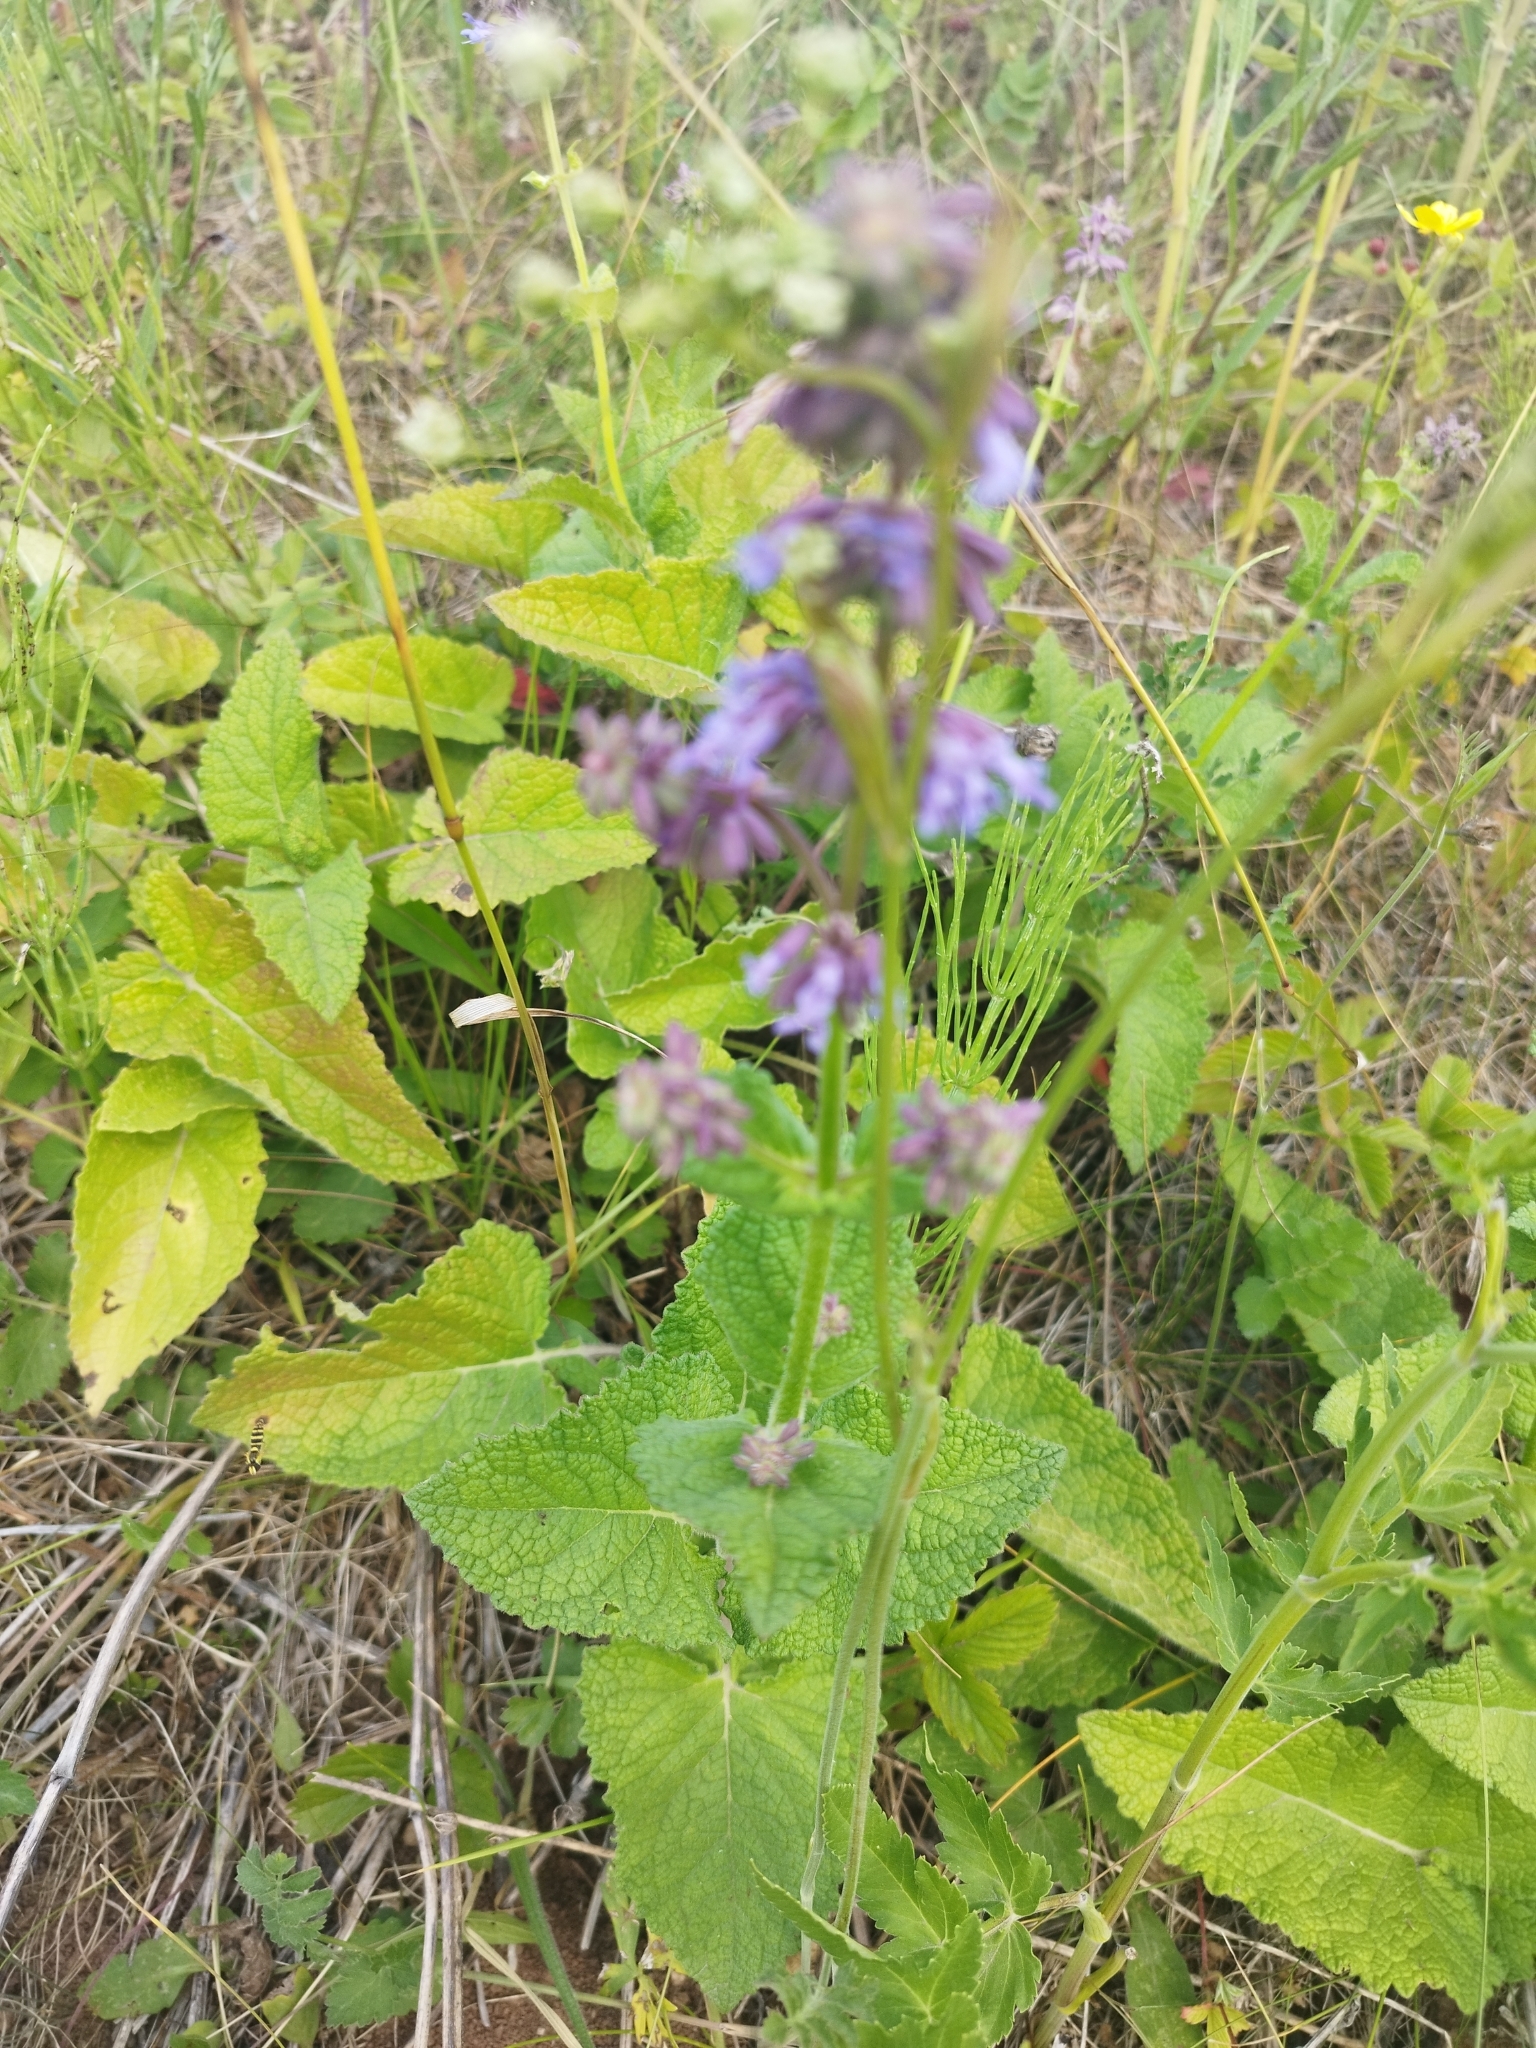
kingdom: Plantae
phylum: Tracheophyta
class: Magnoliopsida
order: Lamiales
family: Lamiaceae
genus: Salvia
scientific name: Salvia verticillata
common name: Whorled clary
